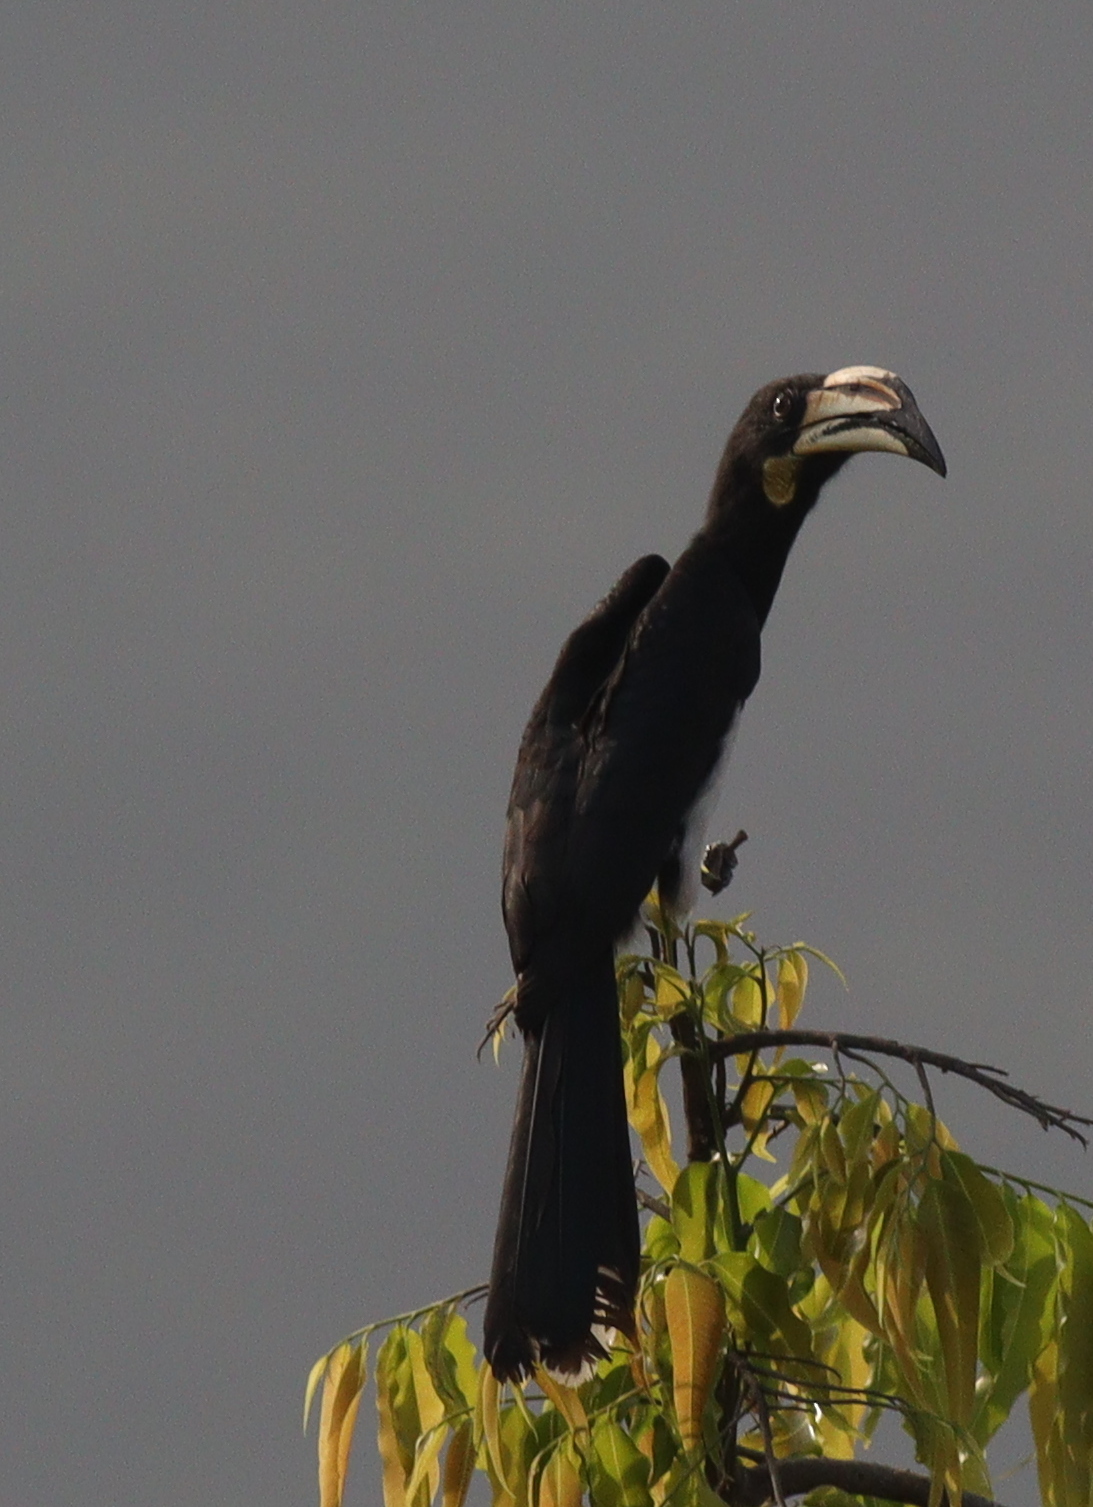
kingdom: Animalia
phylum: Chordata
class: Aves
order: Bucerotiformes
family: Bucerotidae
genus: Lophoceros
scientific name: Lophoceros fasciatus
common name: African pied hornbill
